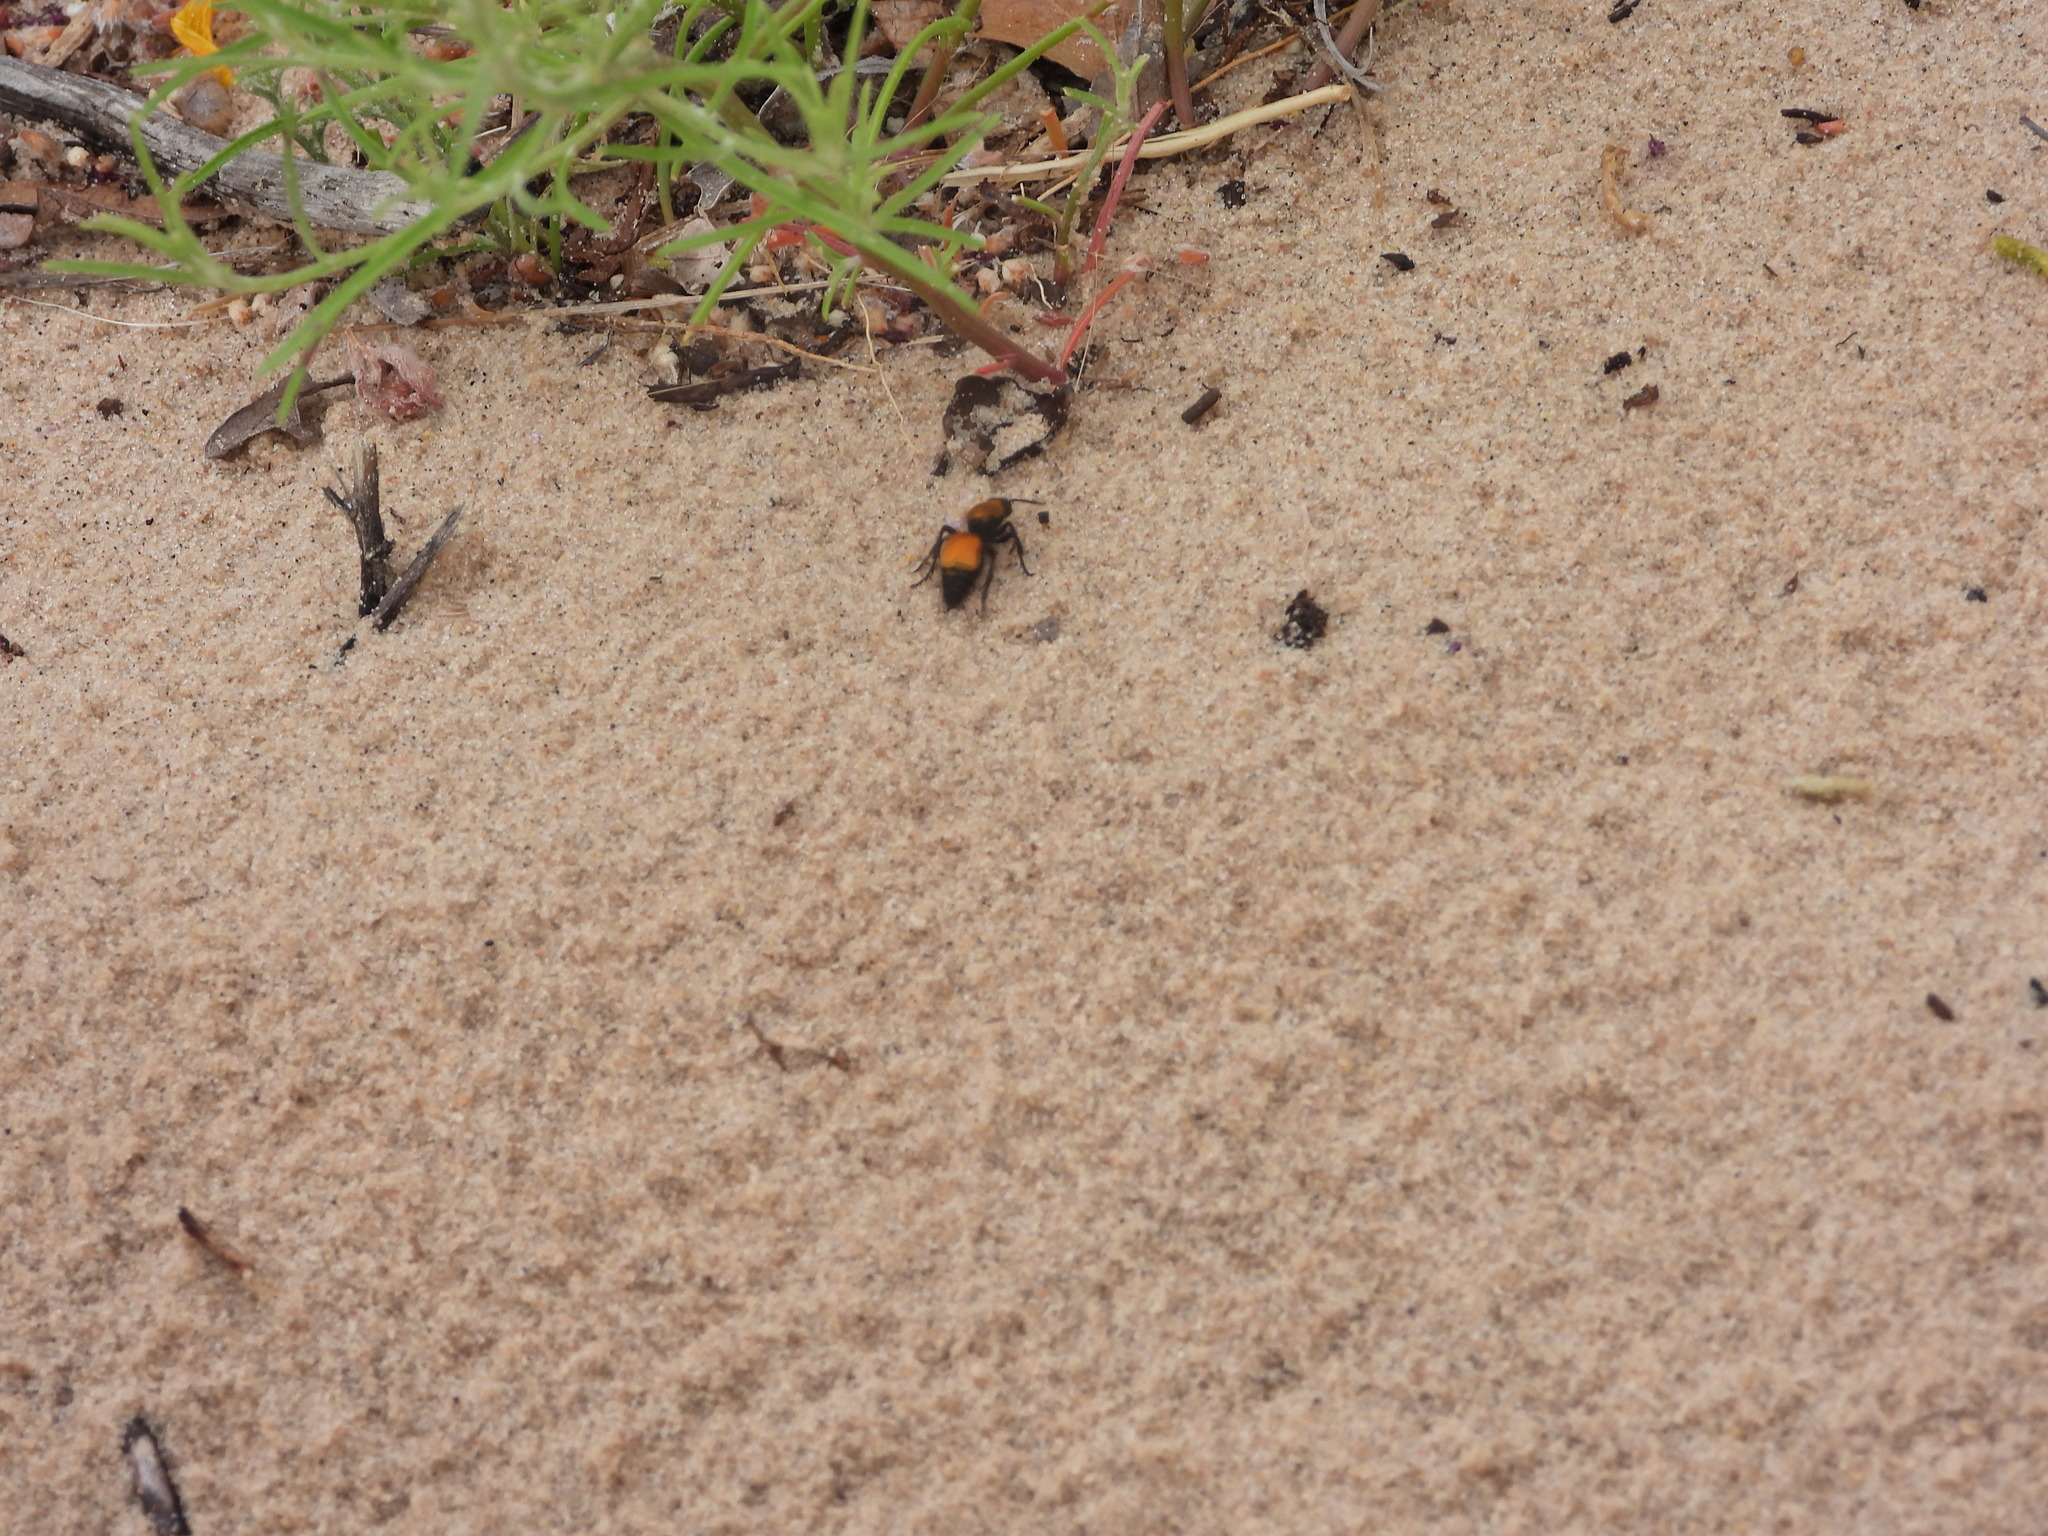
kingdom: Animalia
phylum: Arthropoda
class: Insecta
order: Hymenoptera
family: Mutillidae
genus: Dasymutilla
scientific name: Dasymutilla
